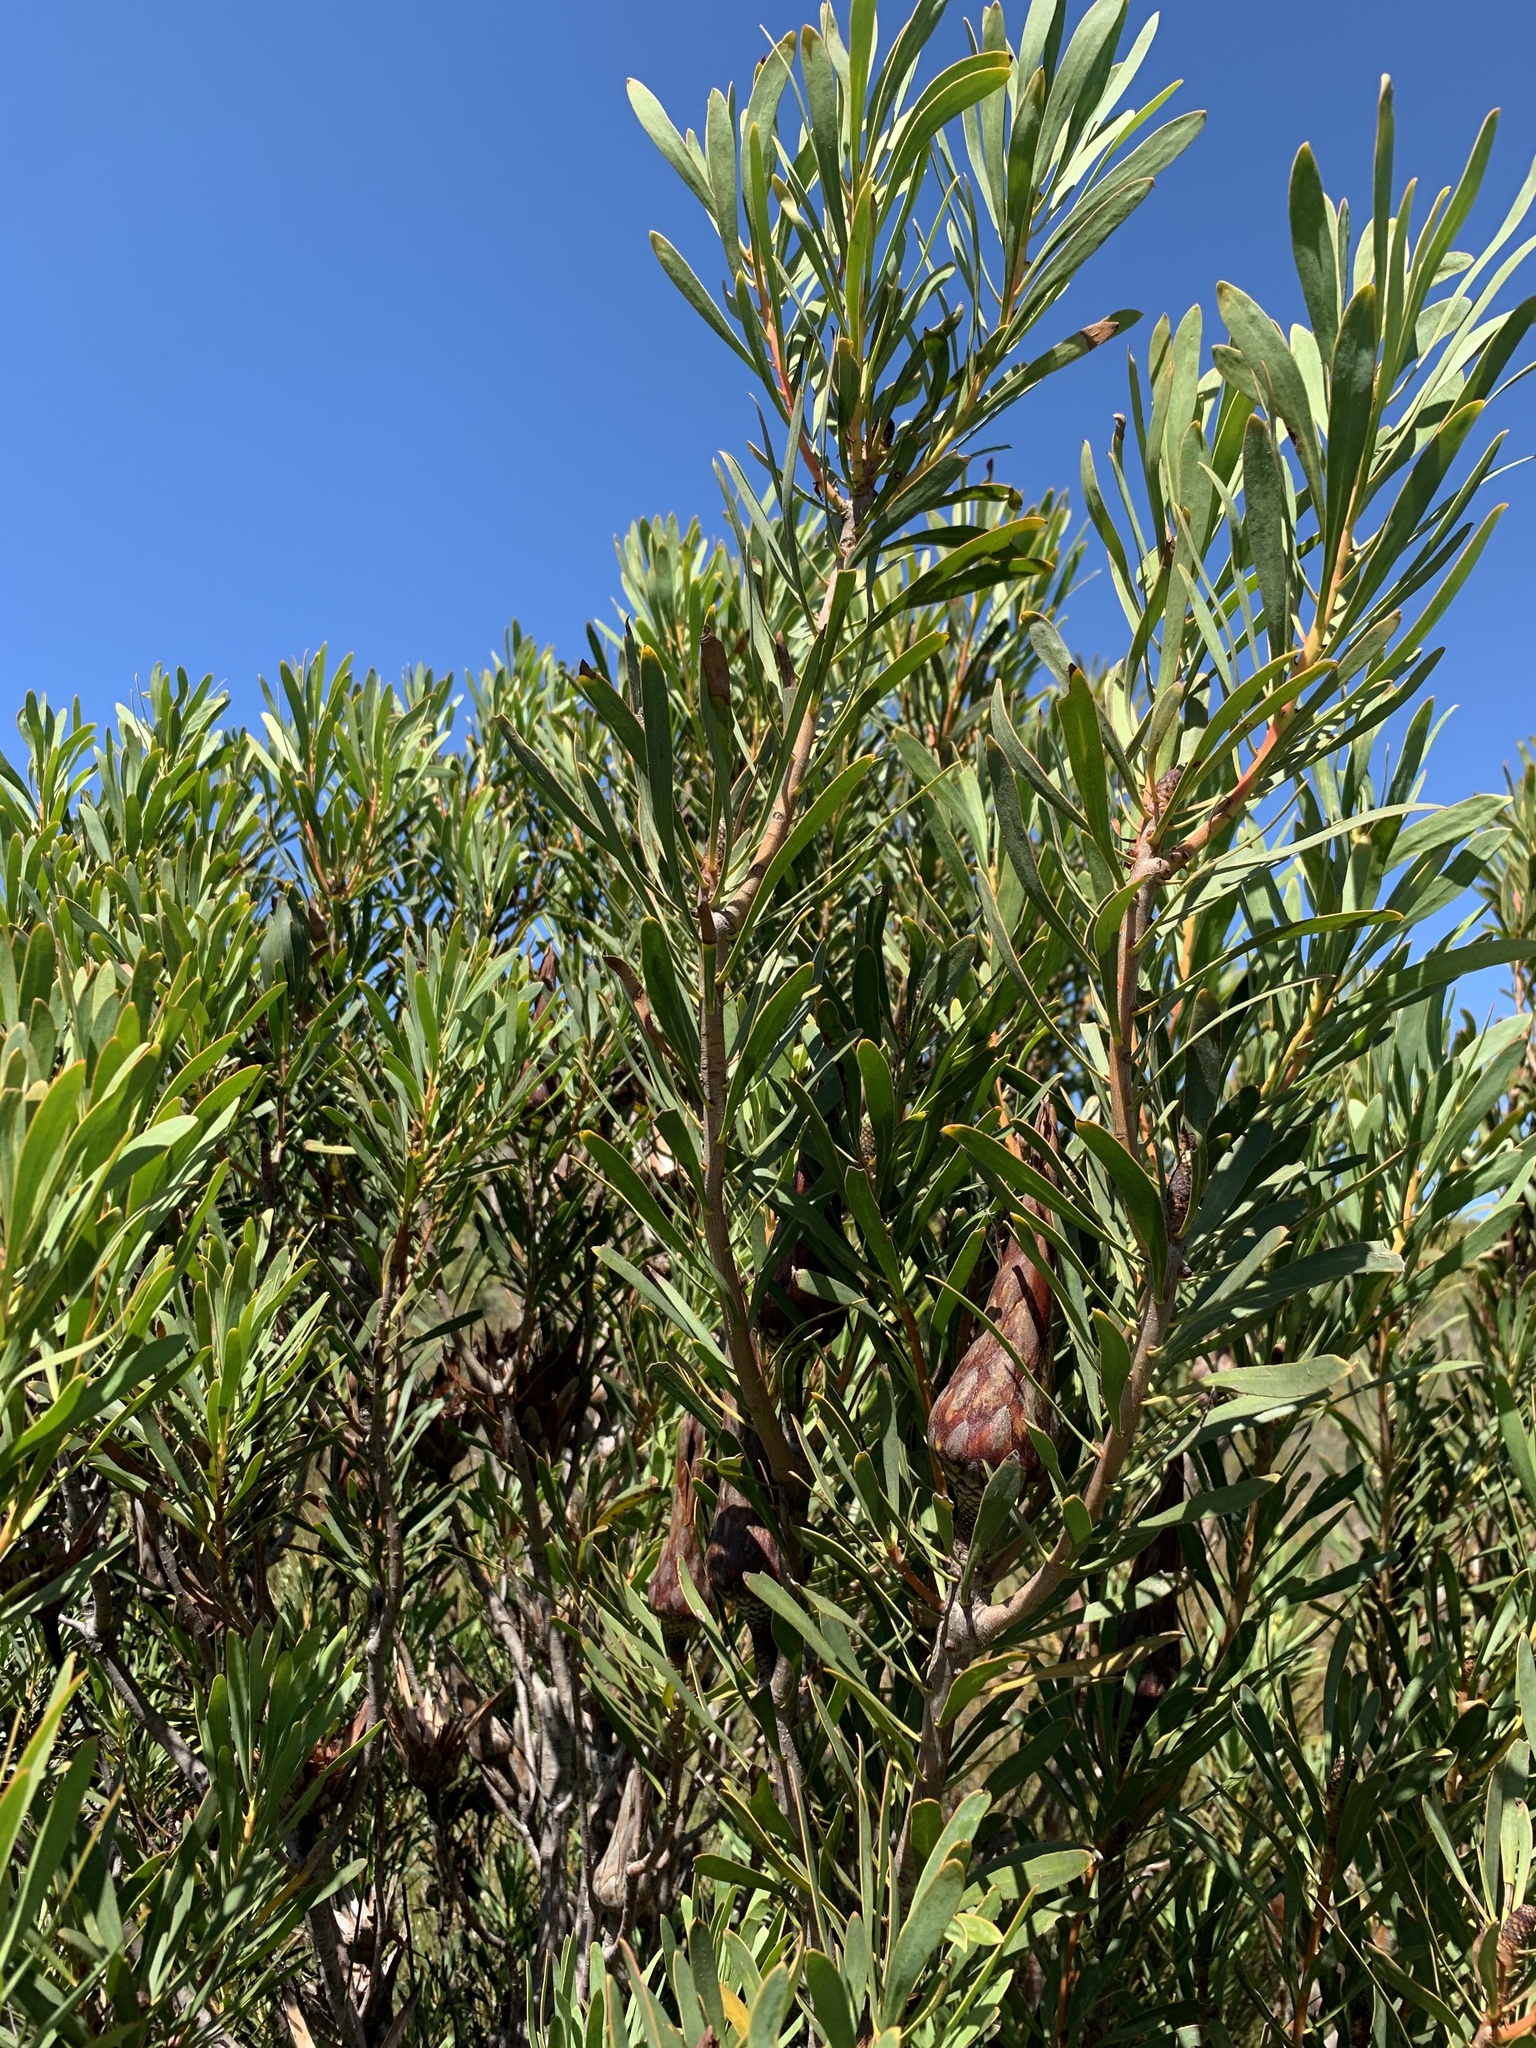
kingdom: Plantae
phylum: Tracheophyta
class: Magnoliopsida
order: Proteales
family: Proteaceae
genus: Protea
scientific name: Protea repens
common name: Sugarbush
